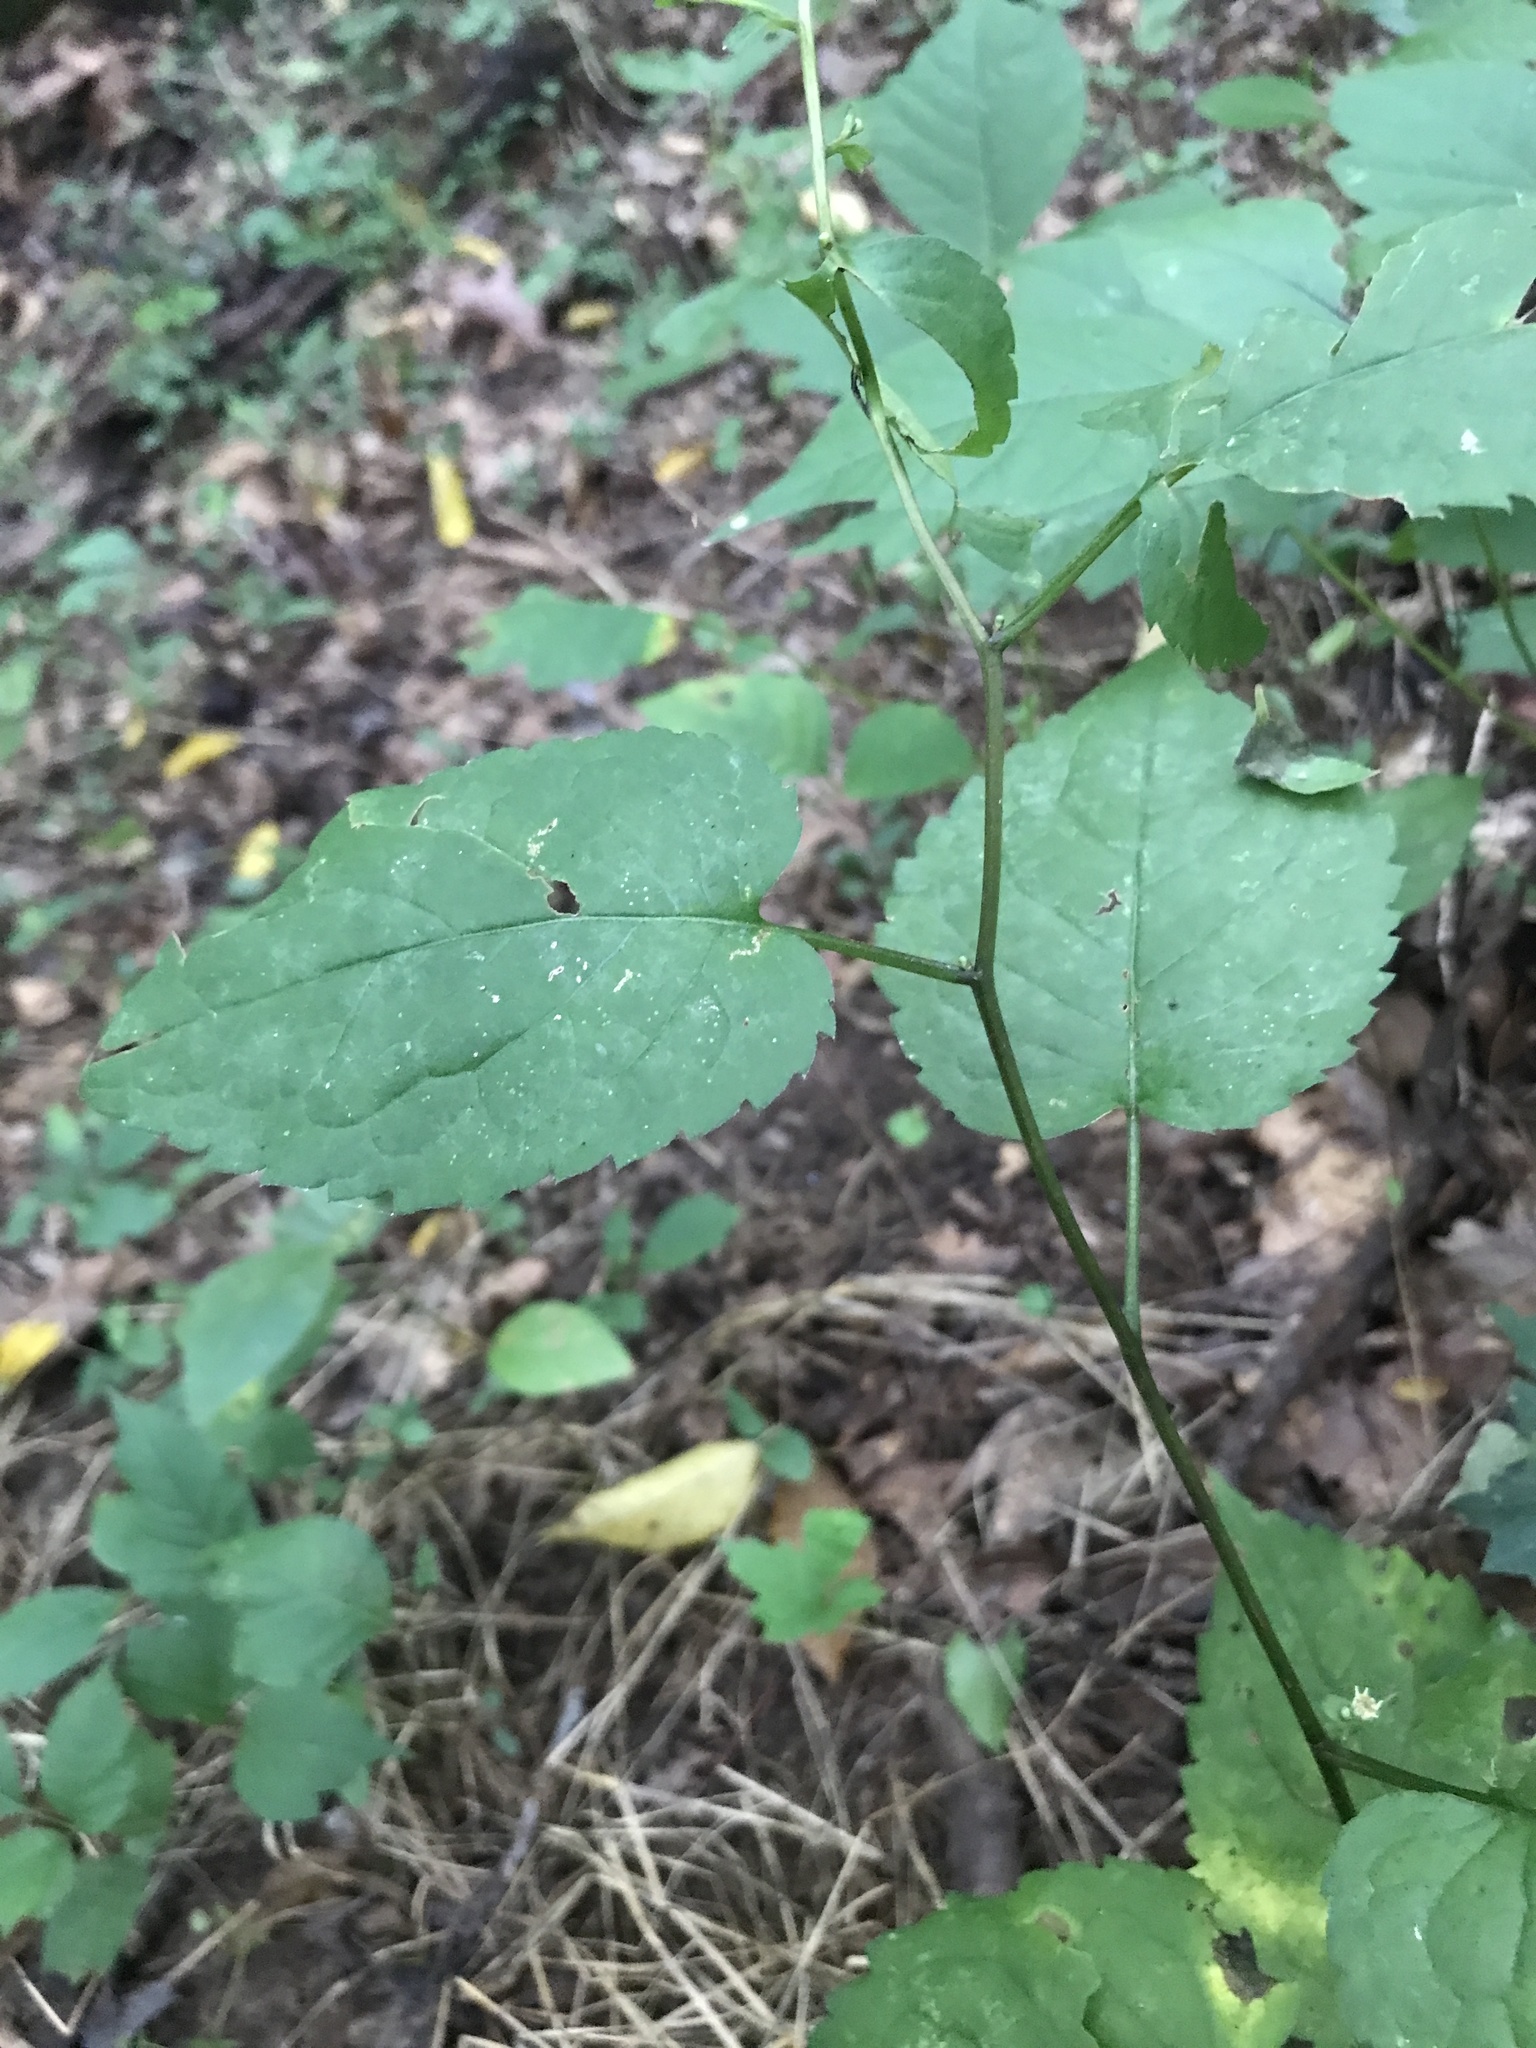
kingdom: Plantae
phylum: Tracheophyta
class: Magnoliopsida
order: Asterales
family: Asteraceae
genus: Eurybia
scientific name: Eurybia divaricata
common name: White wood aster
